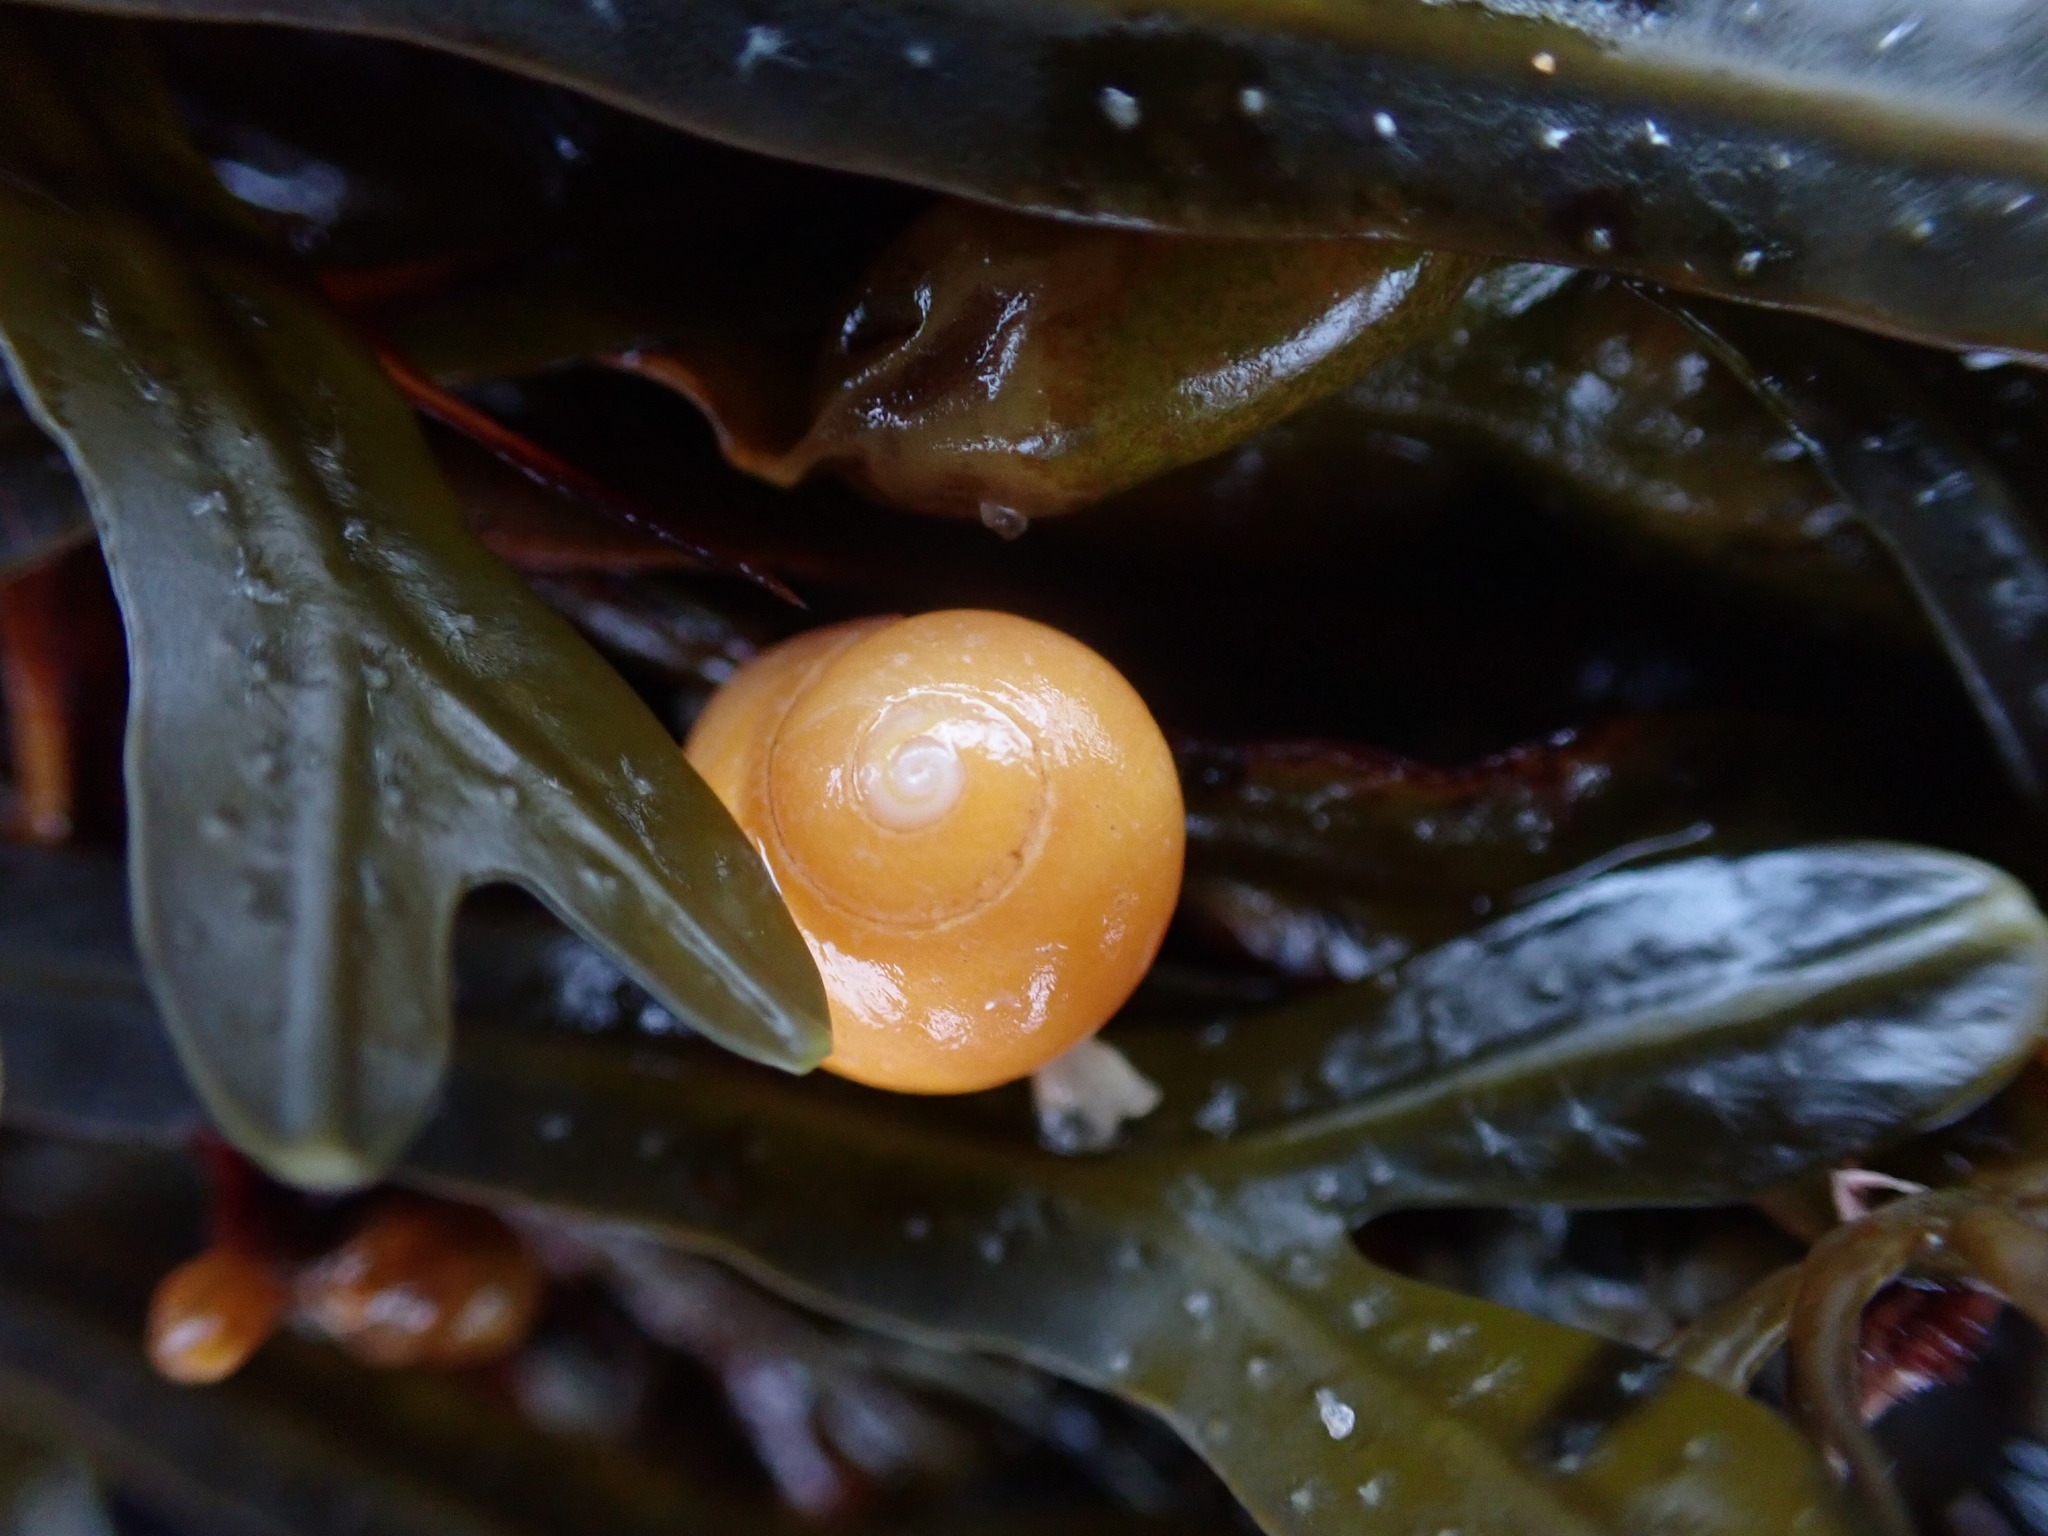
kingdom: Animalia
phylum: Mollusca
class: Gastropoda
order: Littorinimorpha
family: Littorinidae
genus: Littorina
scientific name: Littorina obtusata
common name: Flat periwinkle
